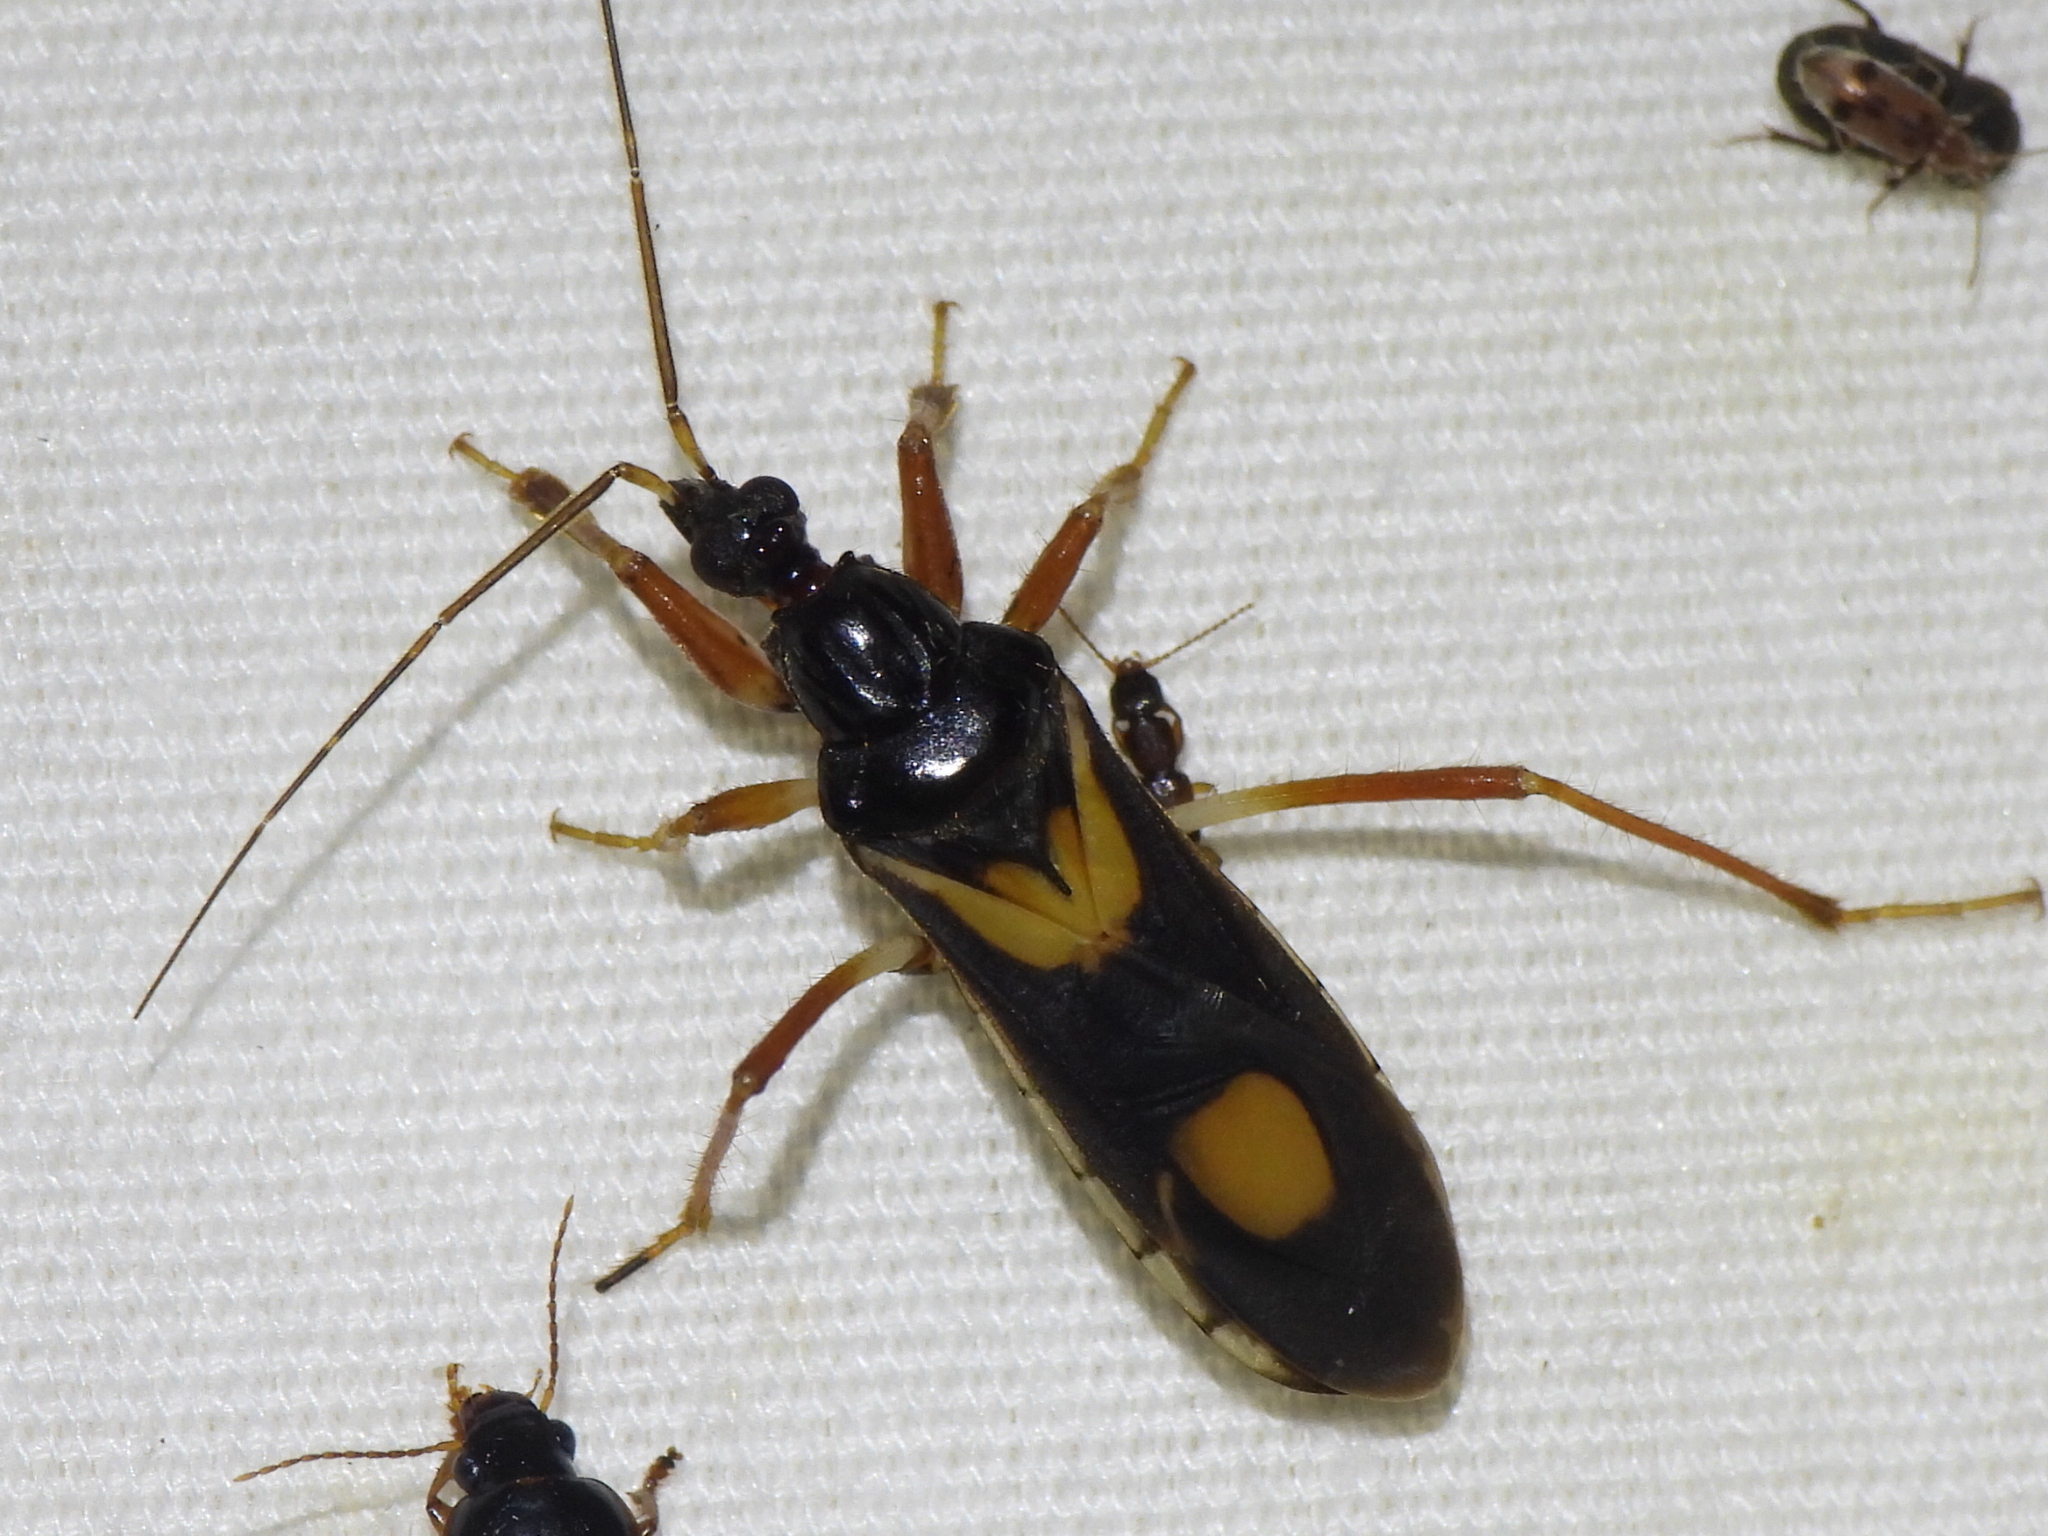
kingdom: Animalia
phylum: Arthropoda
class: Insecta
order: Hemiptera
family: Reduviidae
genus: Rasahus
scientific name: Rasahus hamatus
